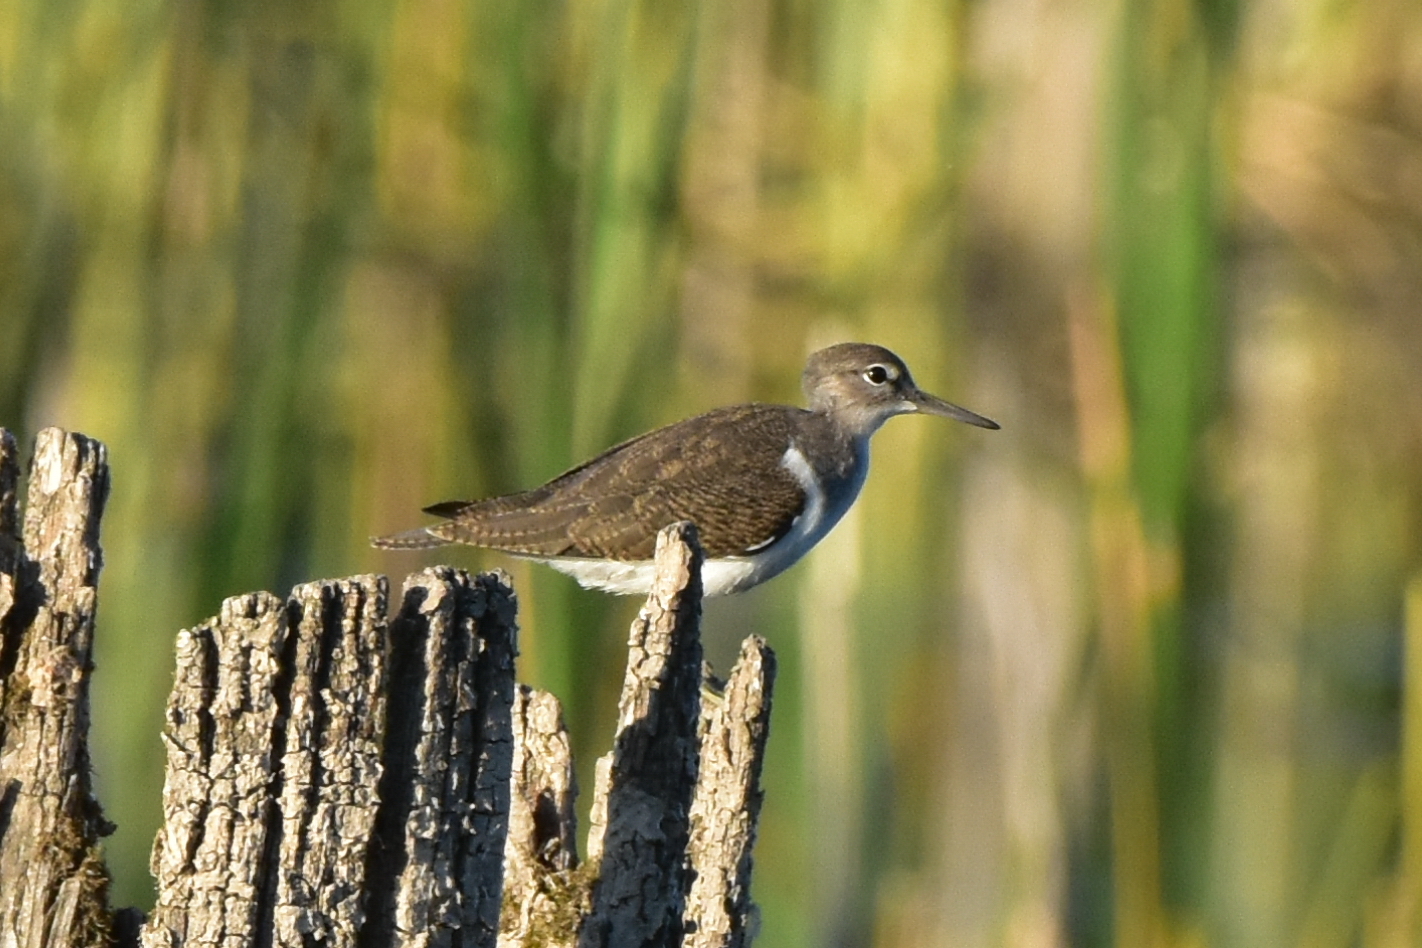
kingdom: Animalia
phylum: Chordata
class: Aves
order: Charadriiformes
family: Scolopacidae
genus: Actitis
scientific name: Actitis hypoleucos
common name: Common sandpiper
